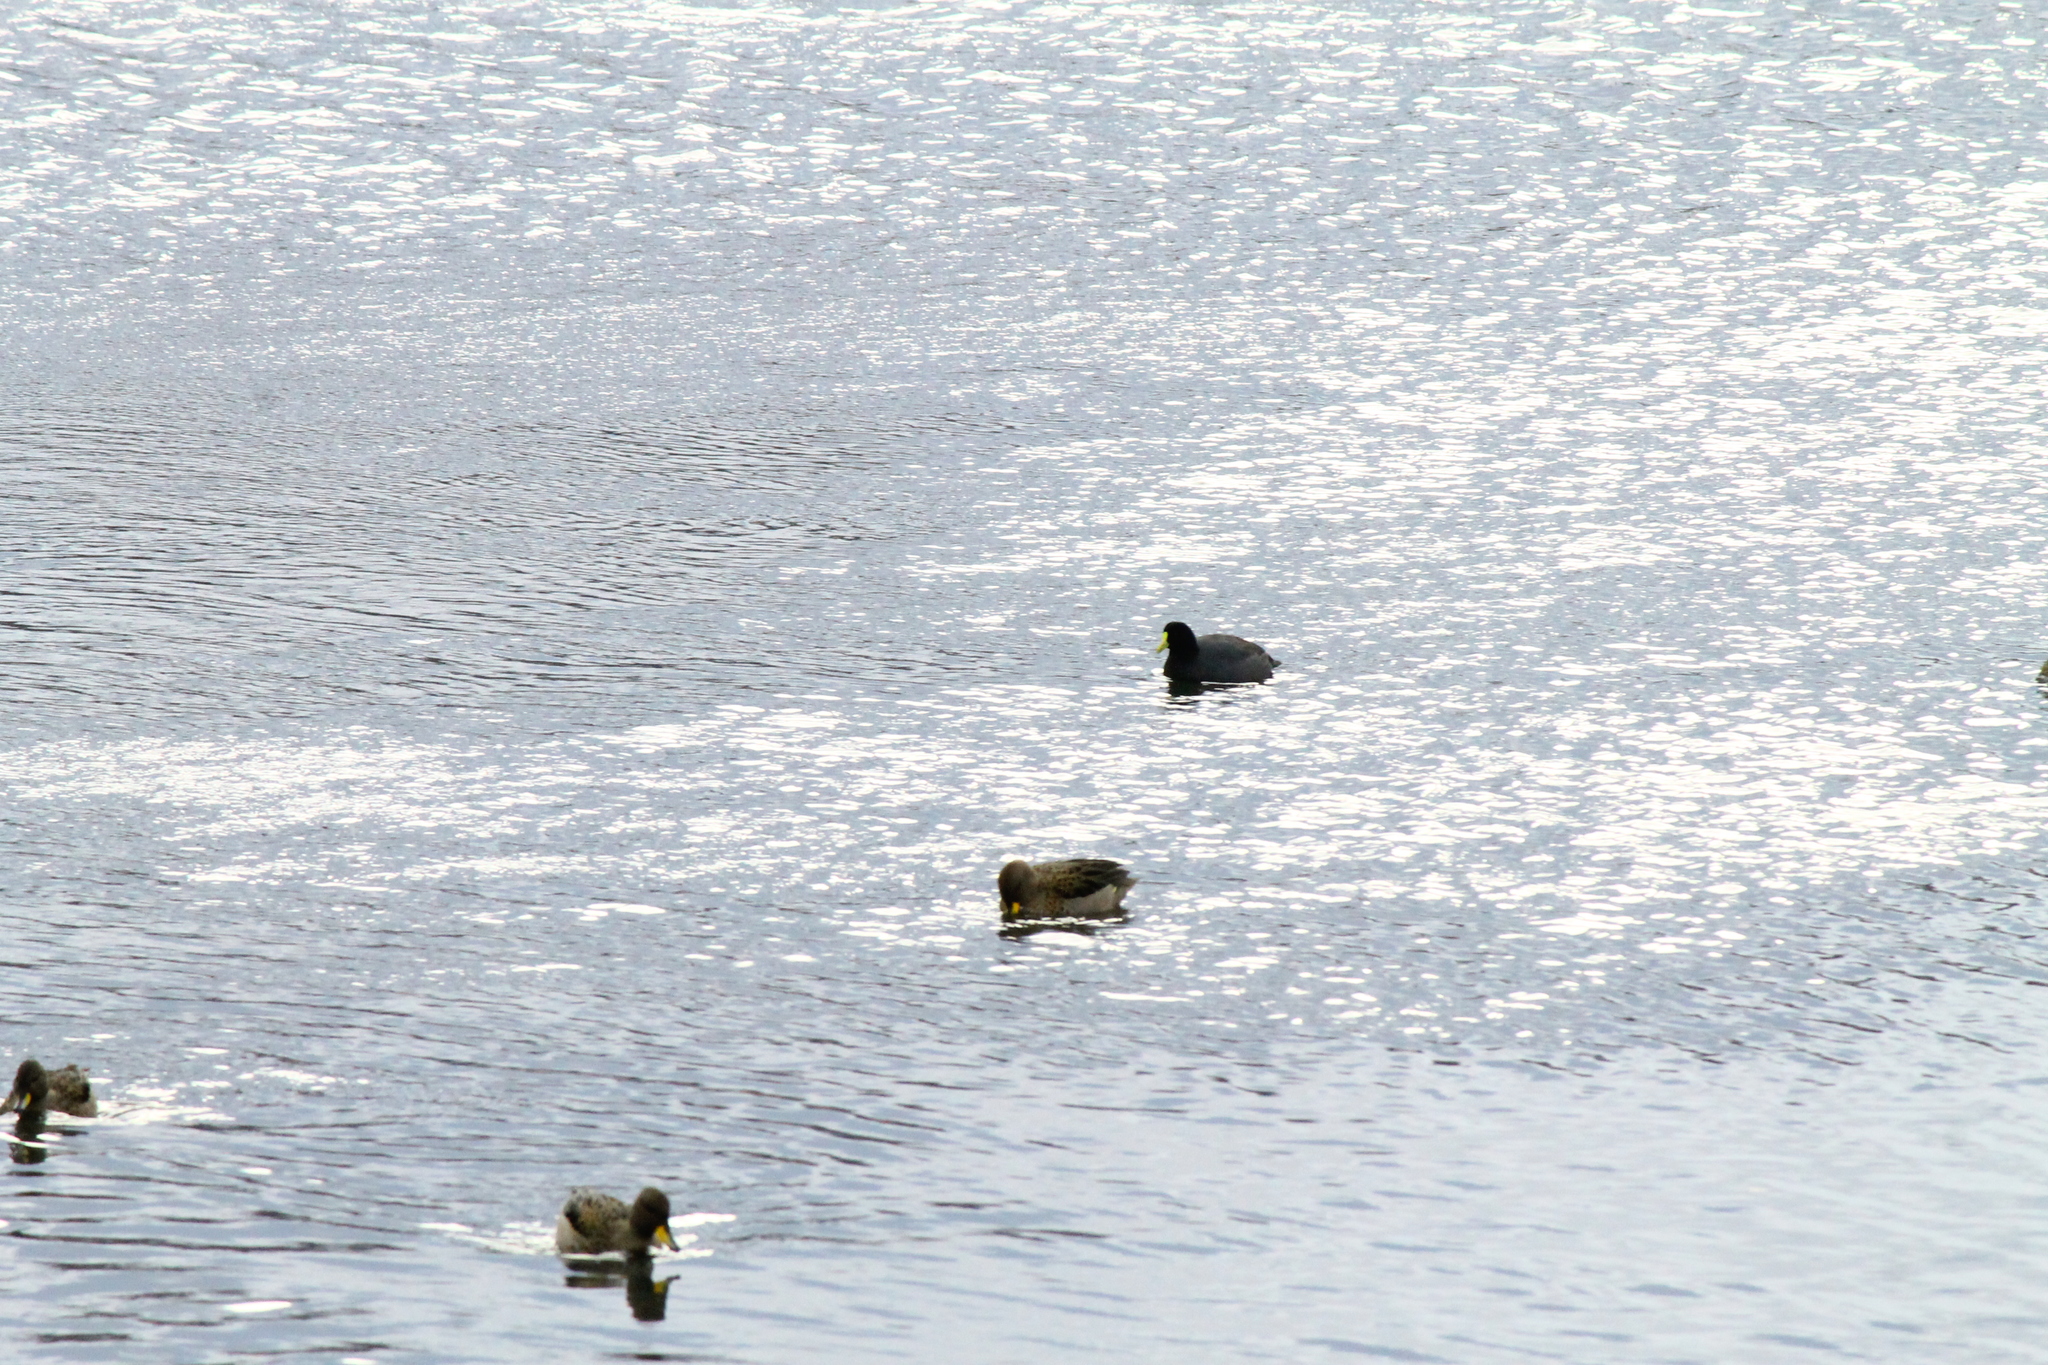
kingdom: Animalia
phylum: Chordata
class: Aves
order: Gruiformes
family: Rallidae
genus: Fulica
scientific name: Fulica leucoptera
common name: White-winged coot
